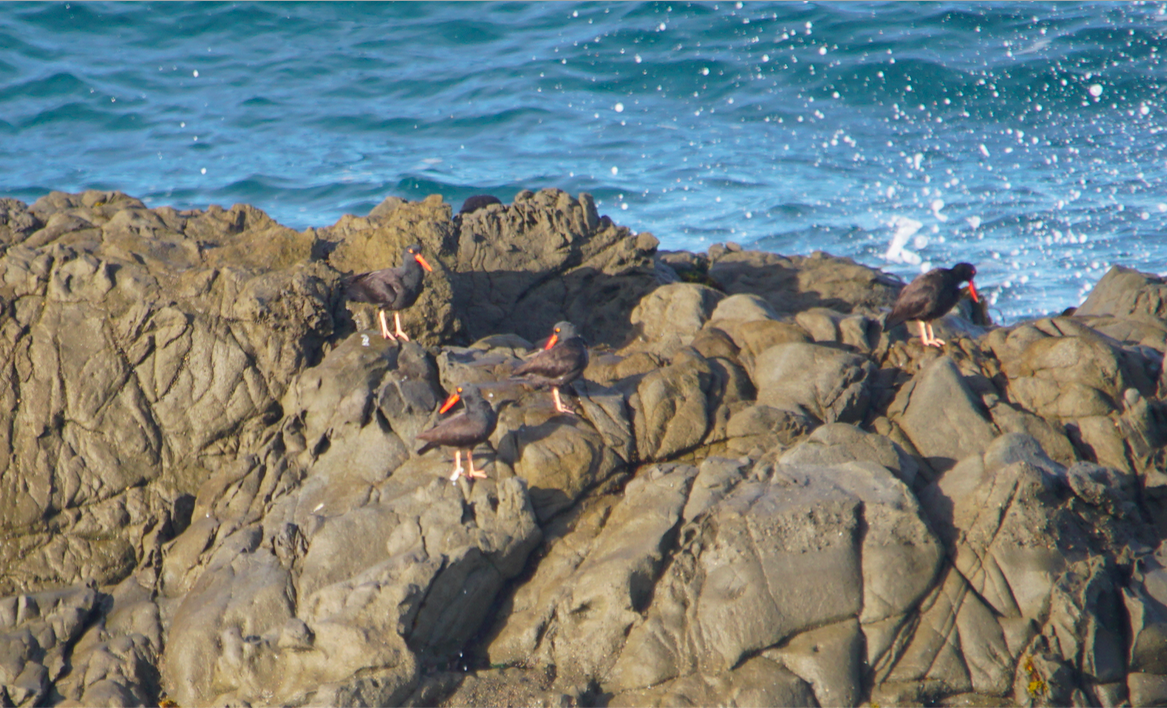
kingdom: Animalia
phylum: Chordata
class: Aves
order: Charadriiformes
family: Haematopodidae
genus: Haematopus
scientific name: Haematopus bachmani
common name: Black oystercatcher
